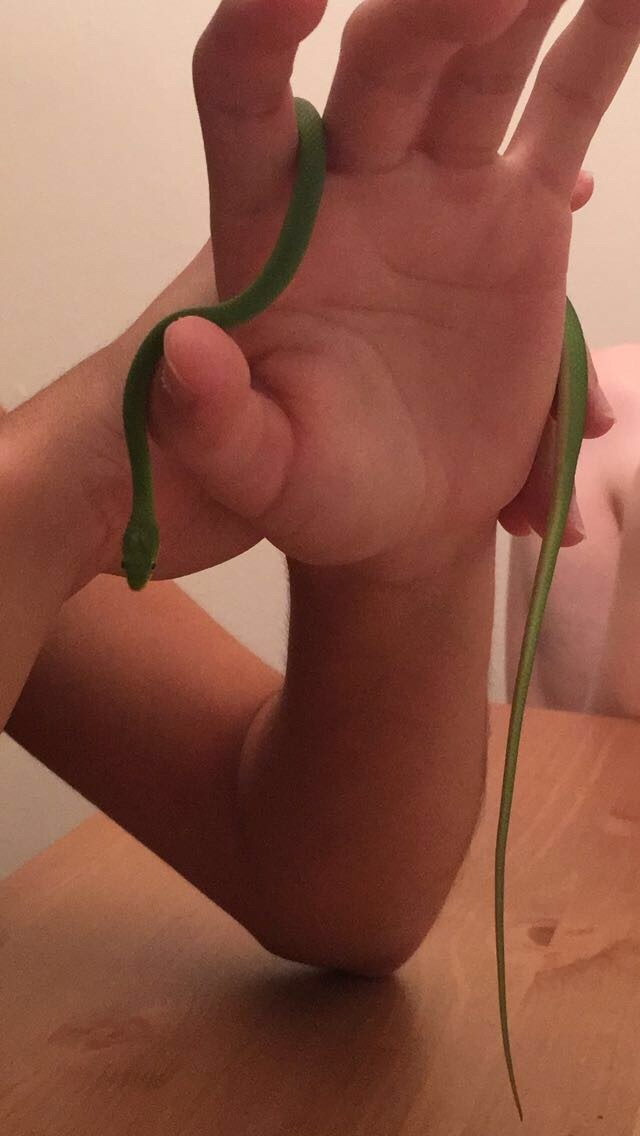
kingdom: Animalia
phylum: Chordata
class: Squamata
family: Colubridae
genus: Opheodrys
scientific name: Opheodrys aestivus
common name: Rough greensnake
